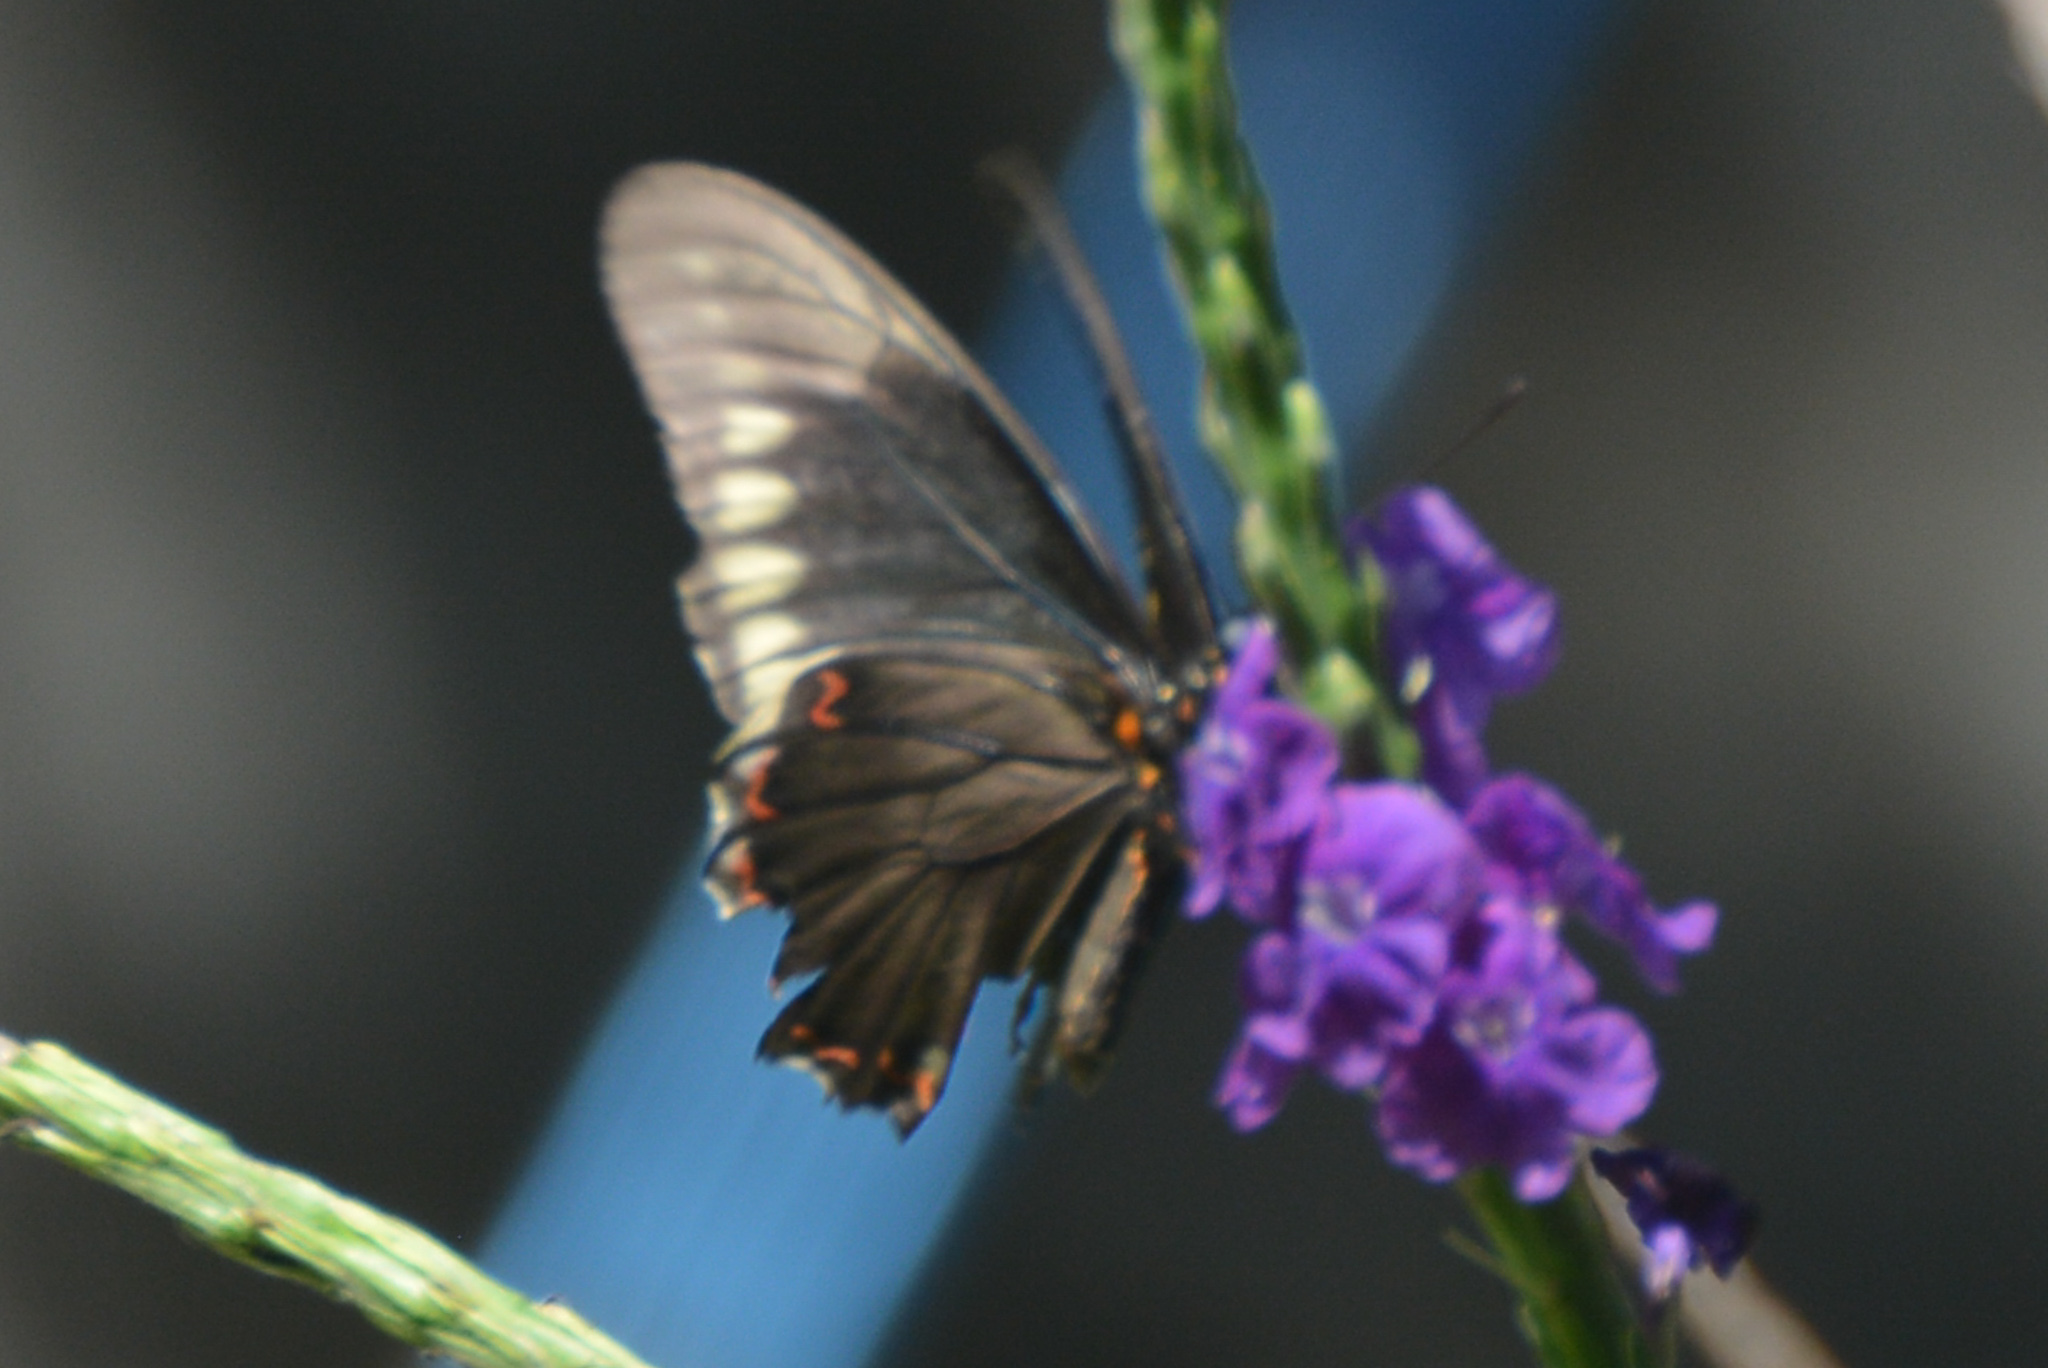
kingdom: Animalia
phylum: Arthropoda
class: Insecta
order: Lepidoptera
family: Papilionidae
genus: Battus
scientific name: Battus polydamas
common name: Polydamas swallowtail
